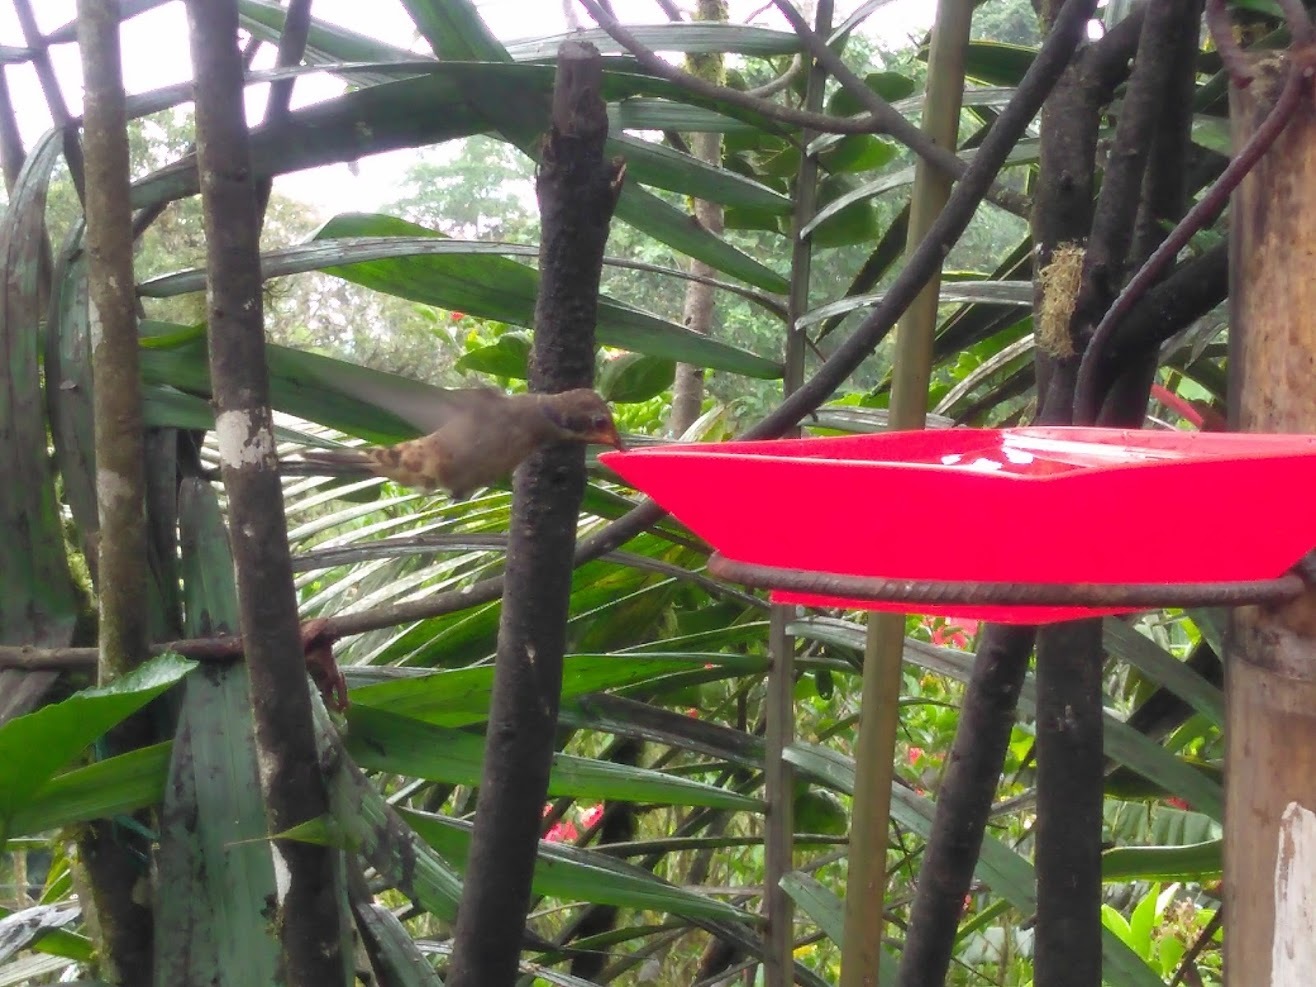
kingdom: Animalia
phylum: Chordata
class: Aves
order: Apodiformes
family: Trochilidae
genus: Colibri
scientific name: Colibri delphinae
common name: Brown violetear
